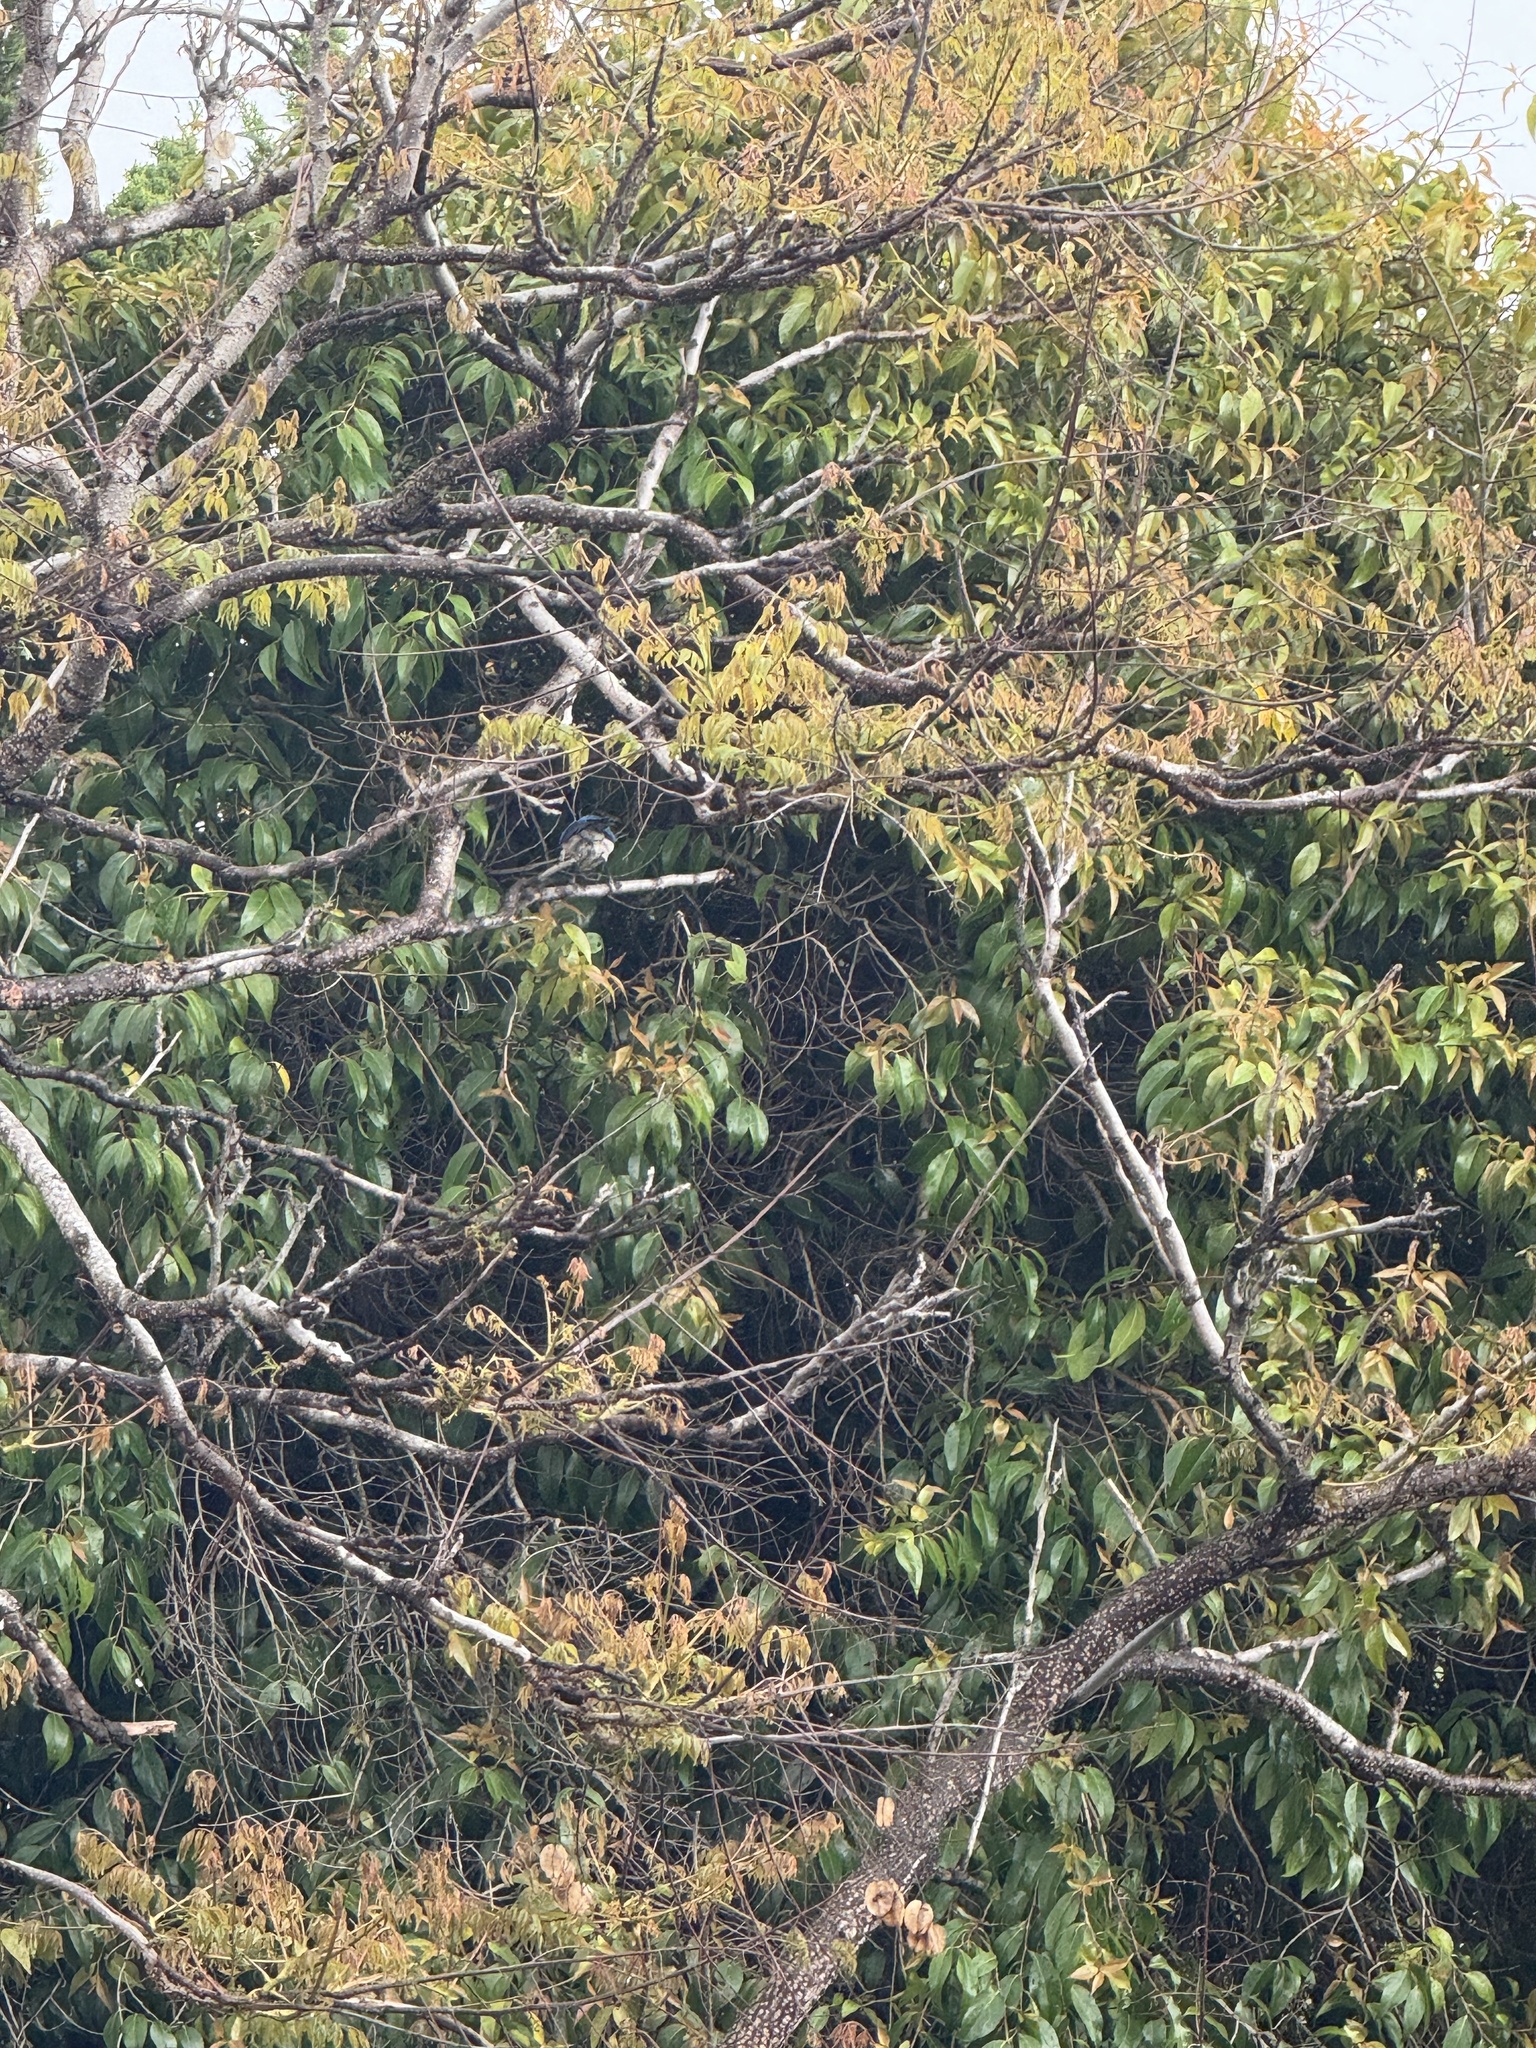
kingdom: Animalia
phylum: Chordata
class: Aves
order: Passeriformes
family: Corvidae
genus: Aphelocoma
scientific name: Aphelocoma californica
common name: California scrub-jay
